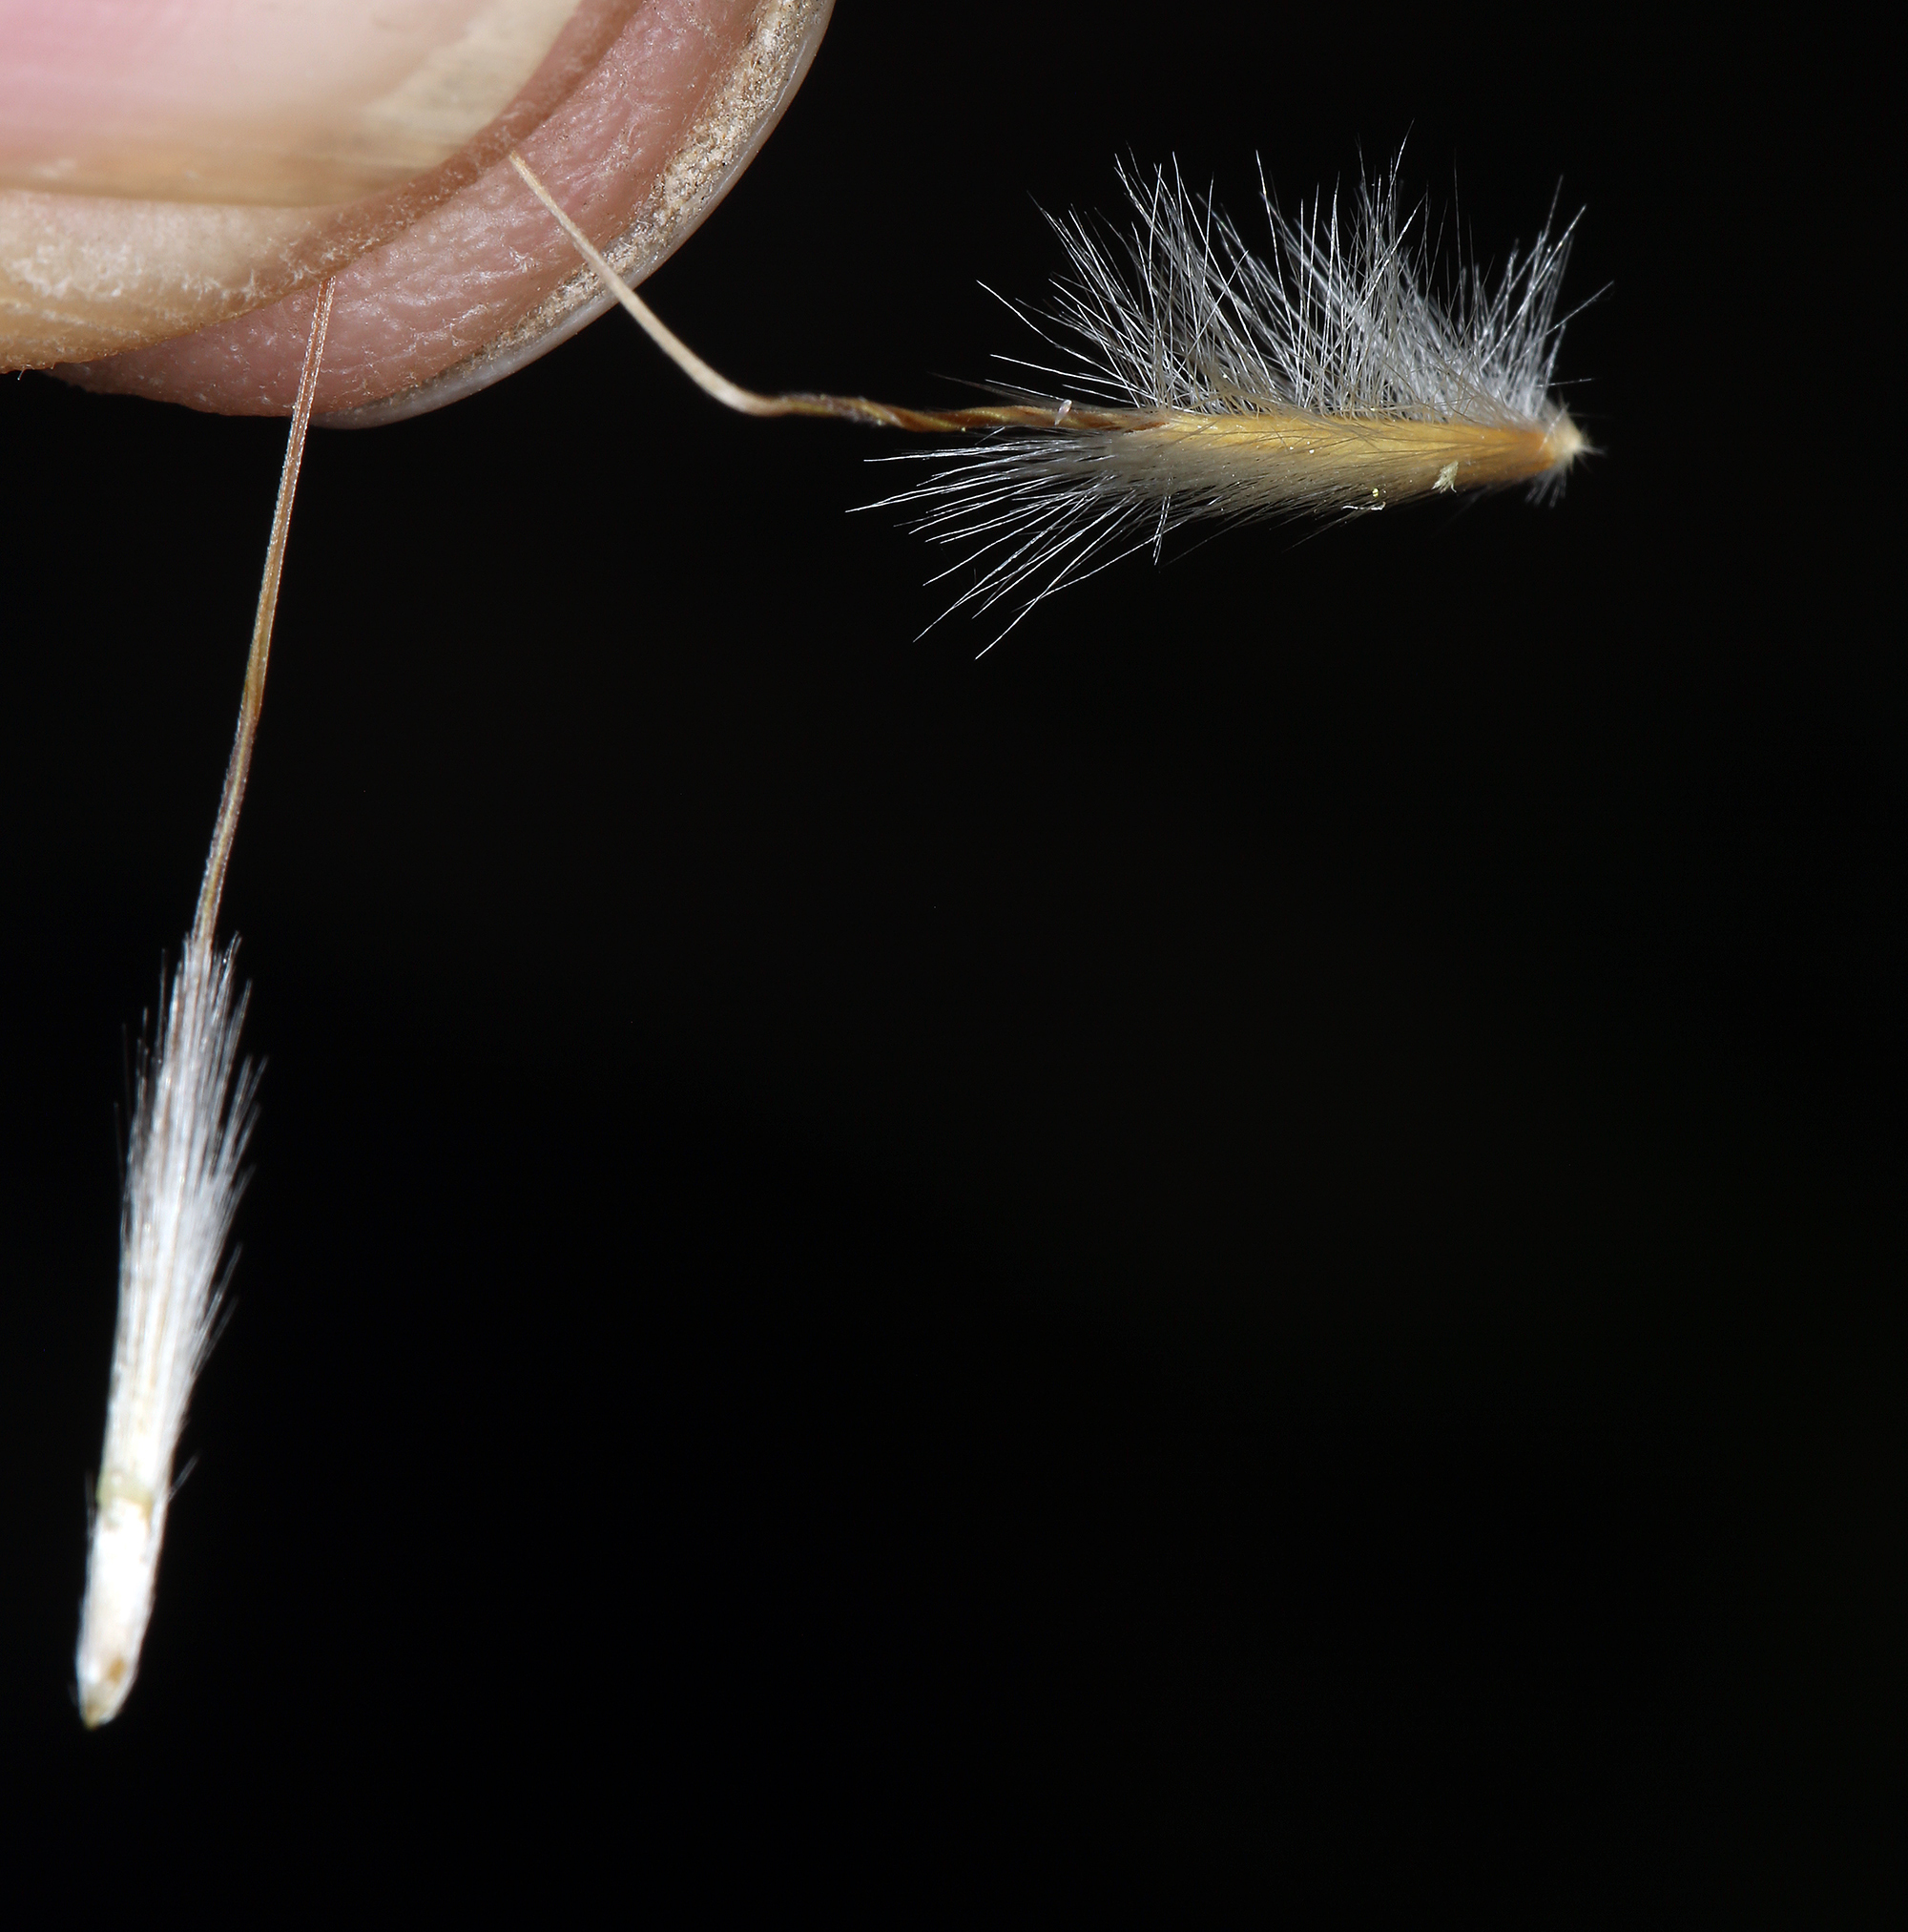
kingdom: Plantae
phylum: Tracheophyta
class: Liliopsida
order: Poales
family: Poaceae
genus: Eriocoma
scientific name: Eriocoma parishii
